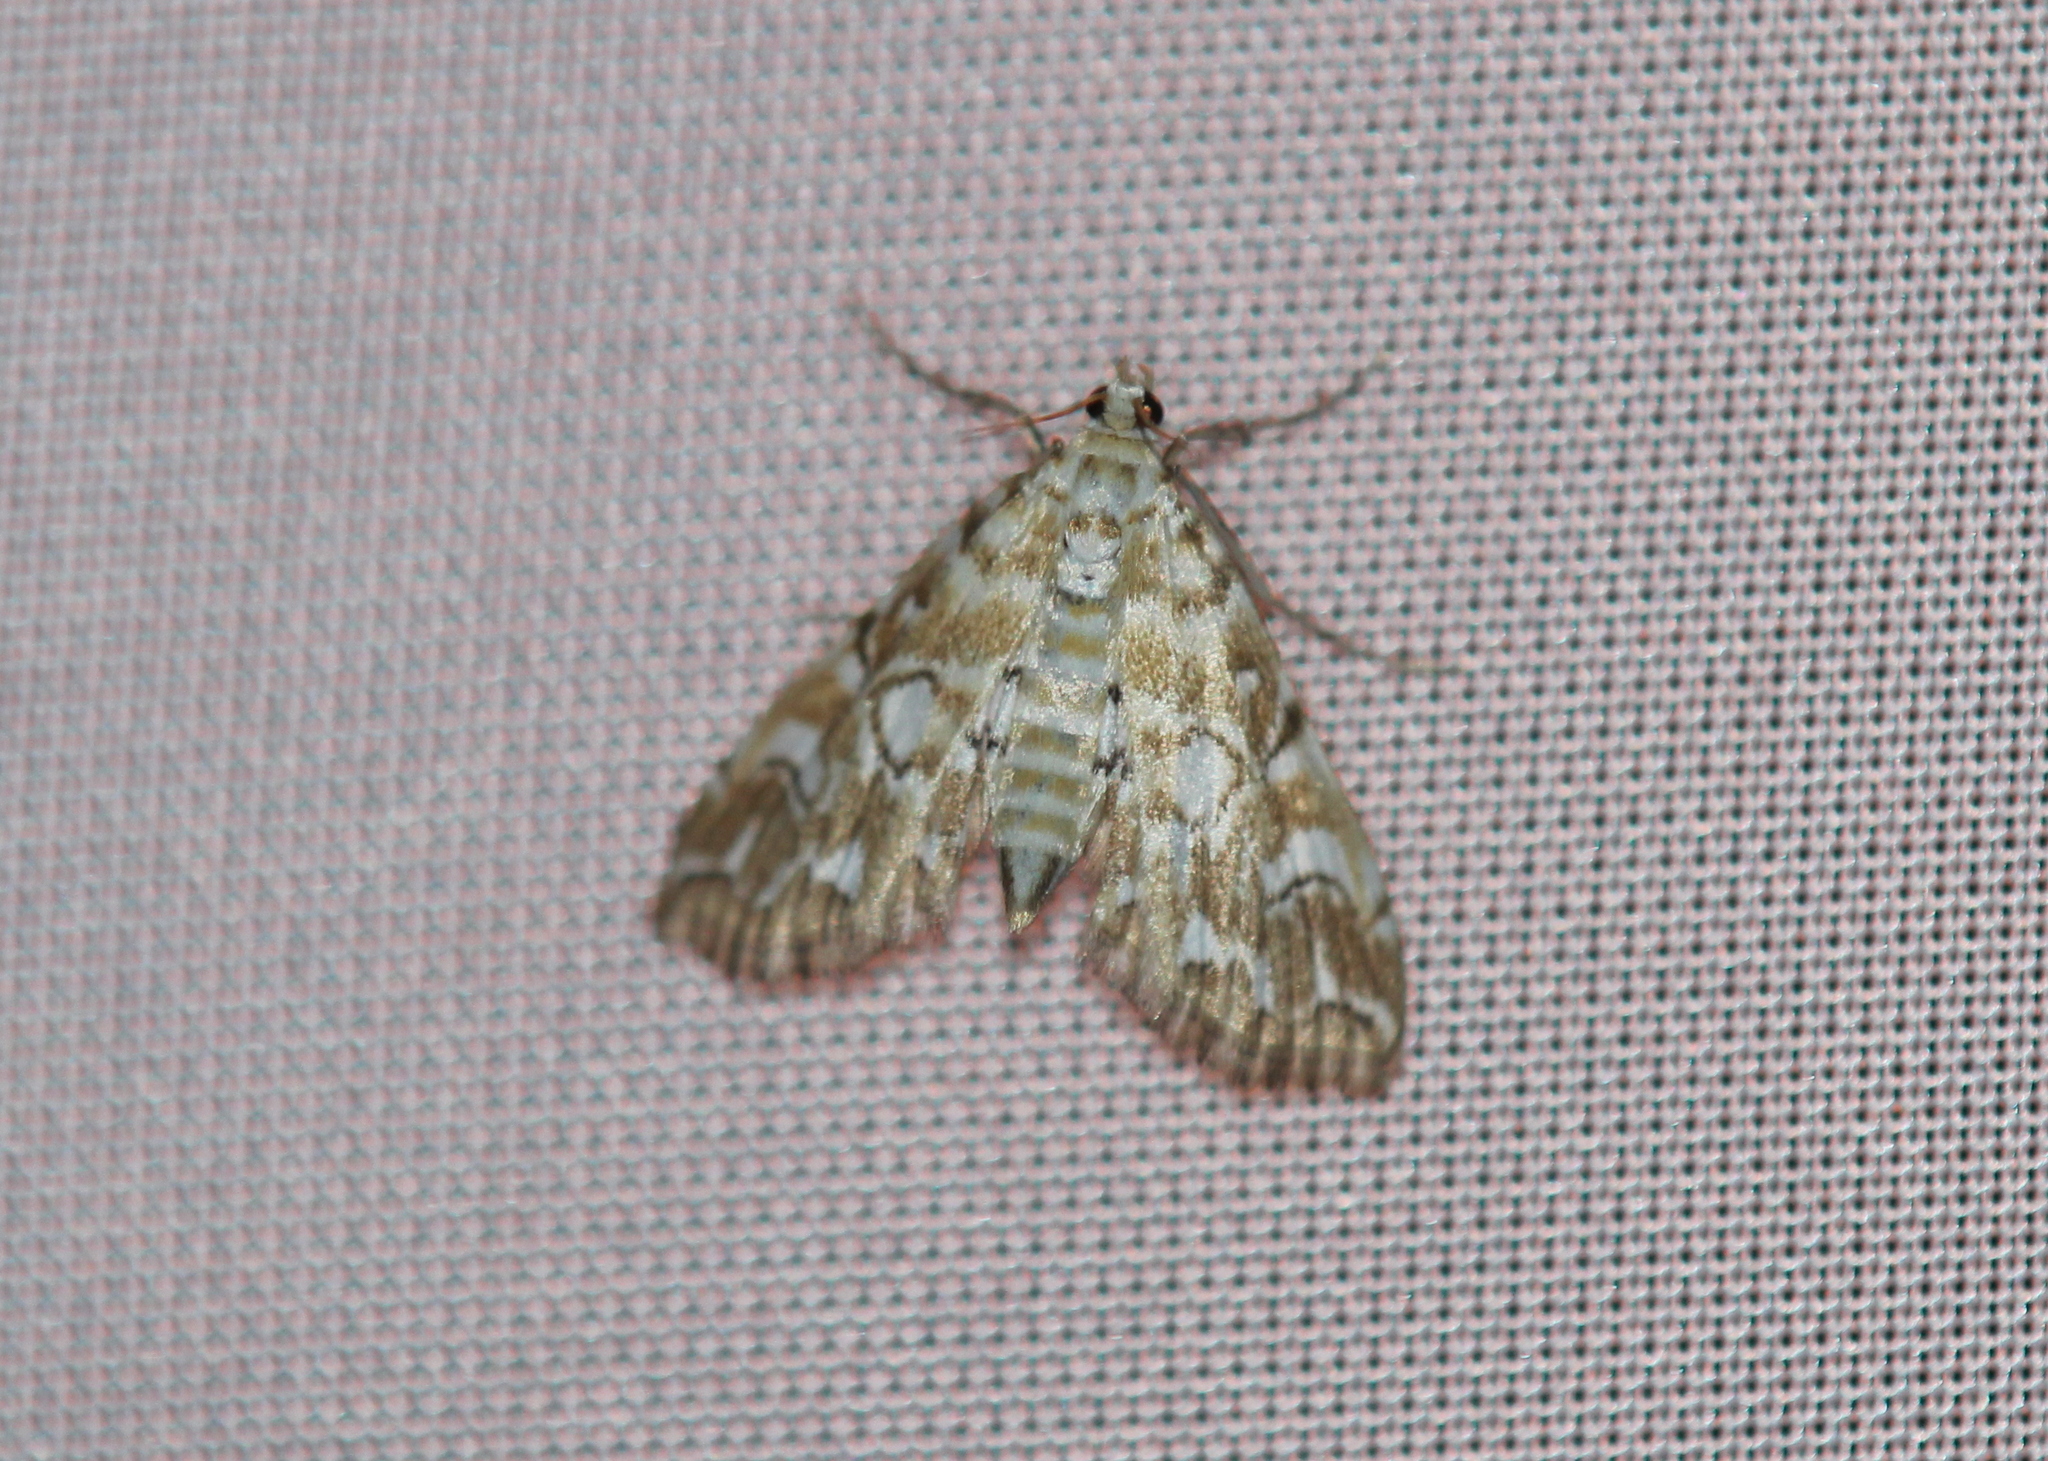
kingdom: Animalia
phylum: Arthropoda
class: Insecta
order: Lepidoptera
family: Crambidae
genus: Elophila
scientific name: Elophila icciusalis
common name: Pondside pyralid moth
